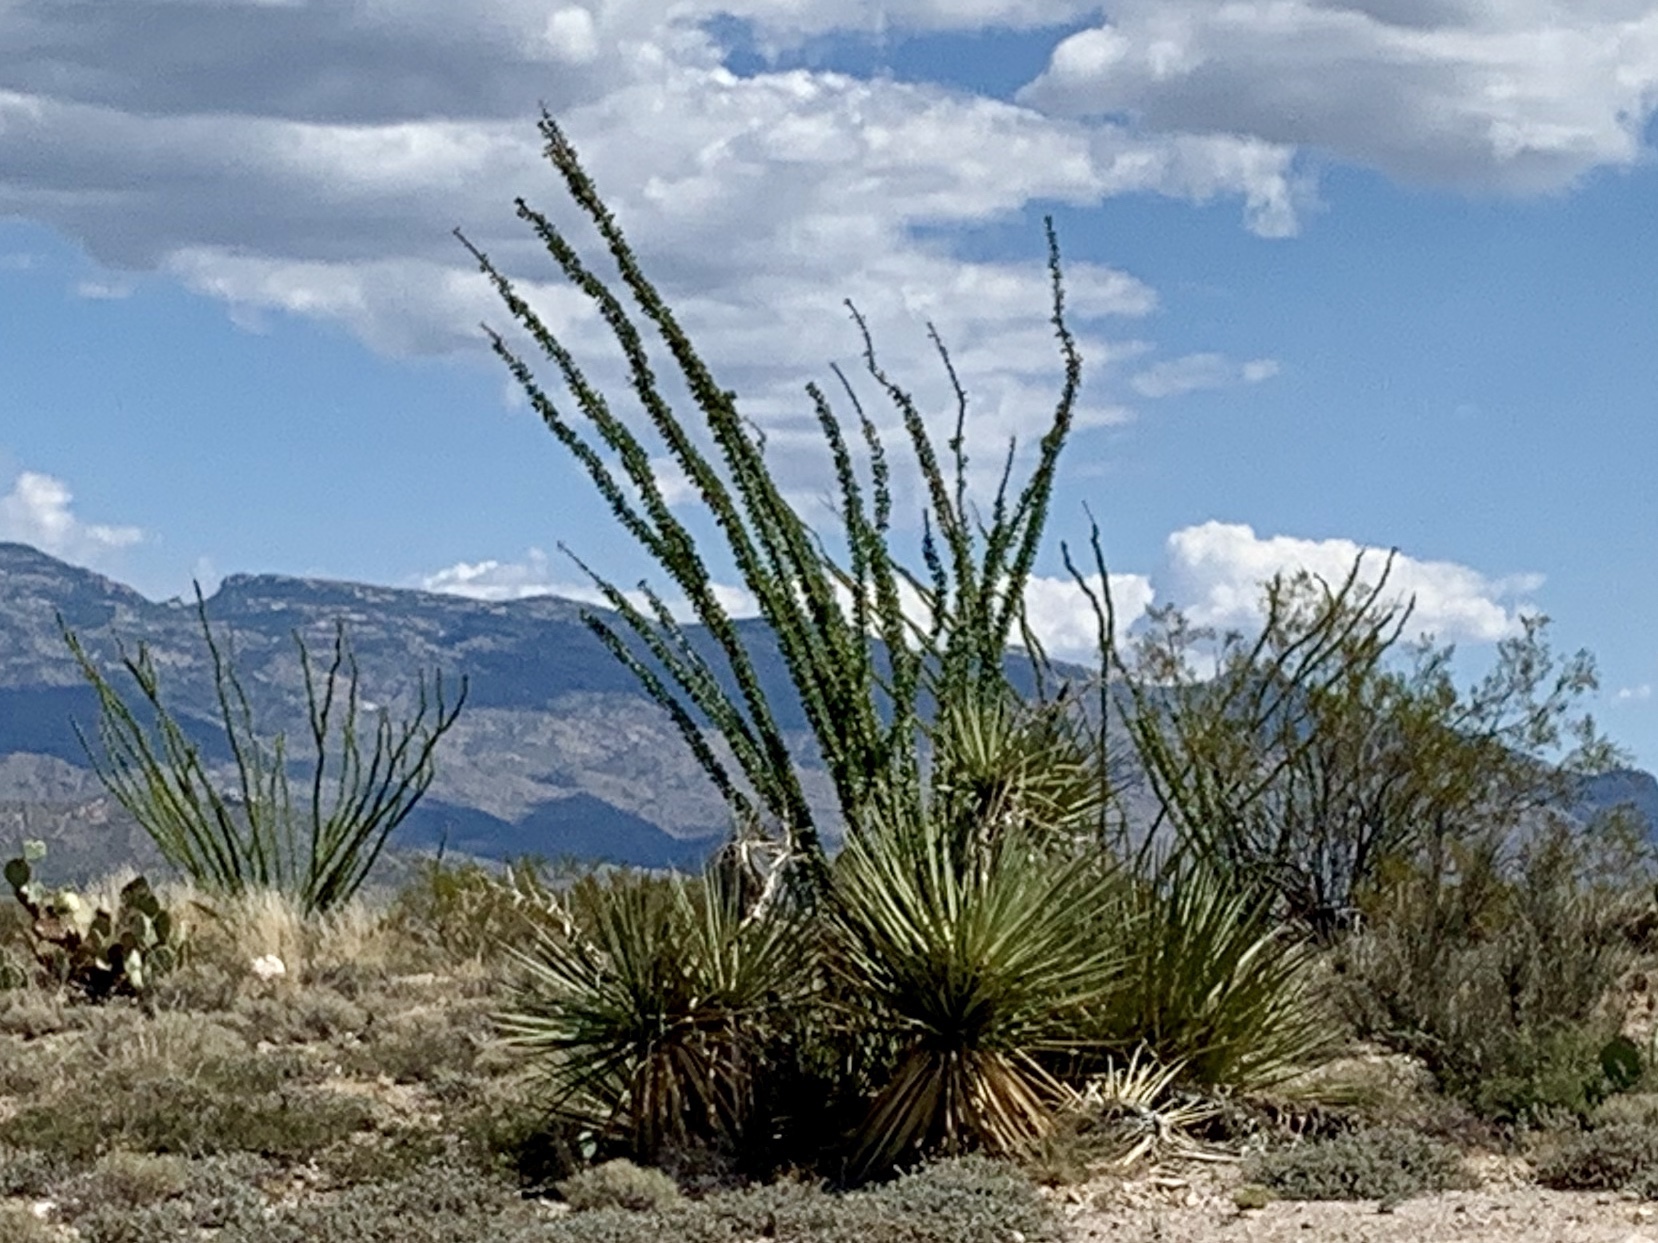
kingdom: Plantae
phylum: Tracheophyta
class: Magnoliopsida
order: Ericales
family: Fouquieriaceae
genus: Fouquieria
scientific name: Fouquieria splendens
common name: Vine-cactus
